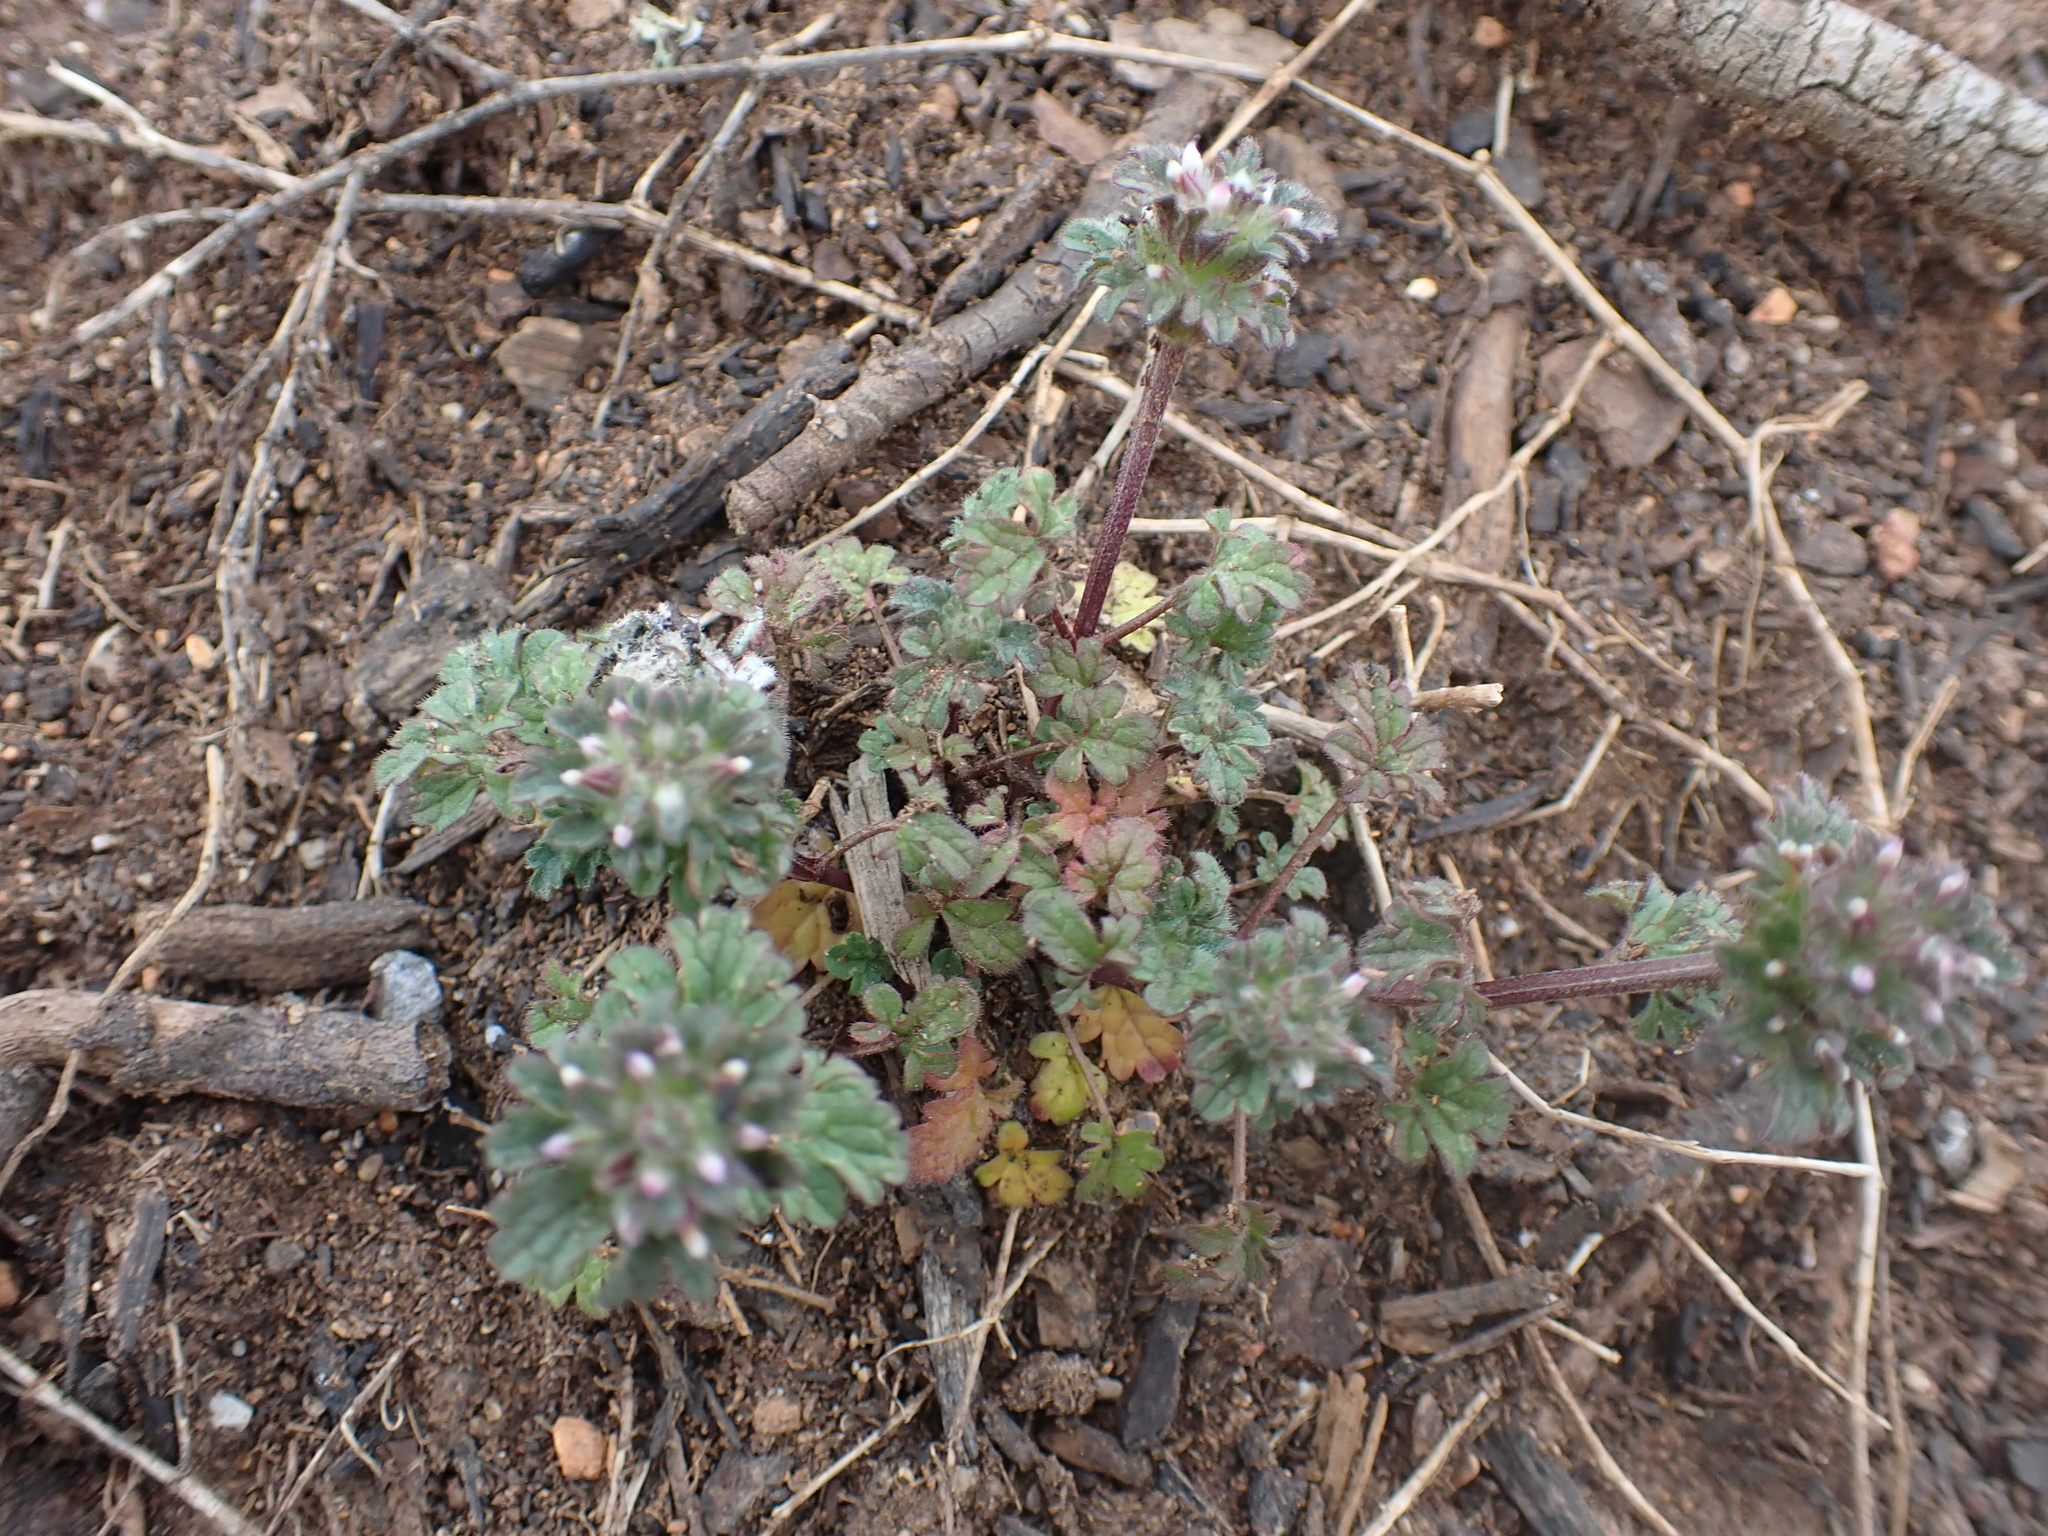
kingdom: Plantae
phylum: Tracheophyta
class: Magnoliopsida
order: Lamiales
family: Lamiaceae
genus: Lamium
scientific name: Lamium amplexicaule
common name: Henbit dead-nettle
